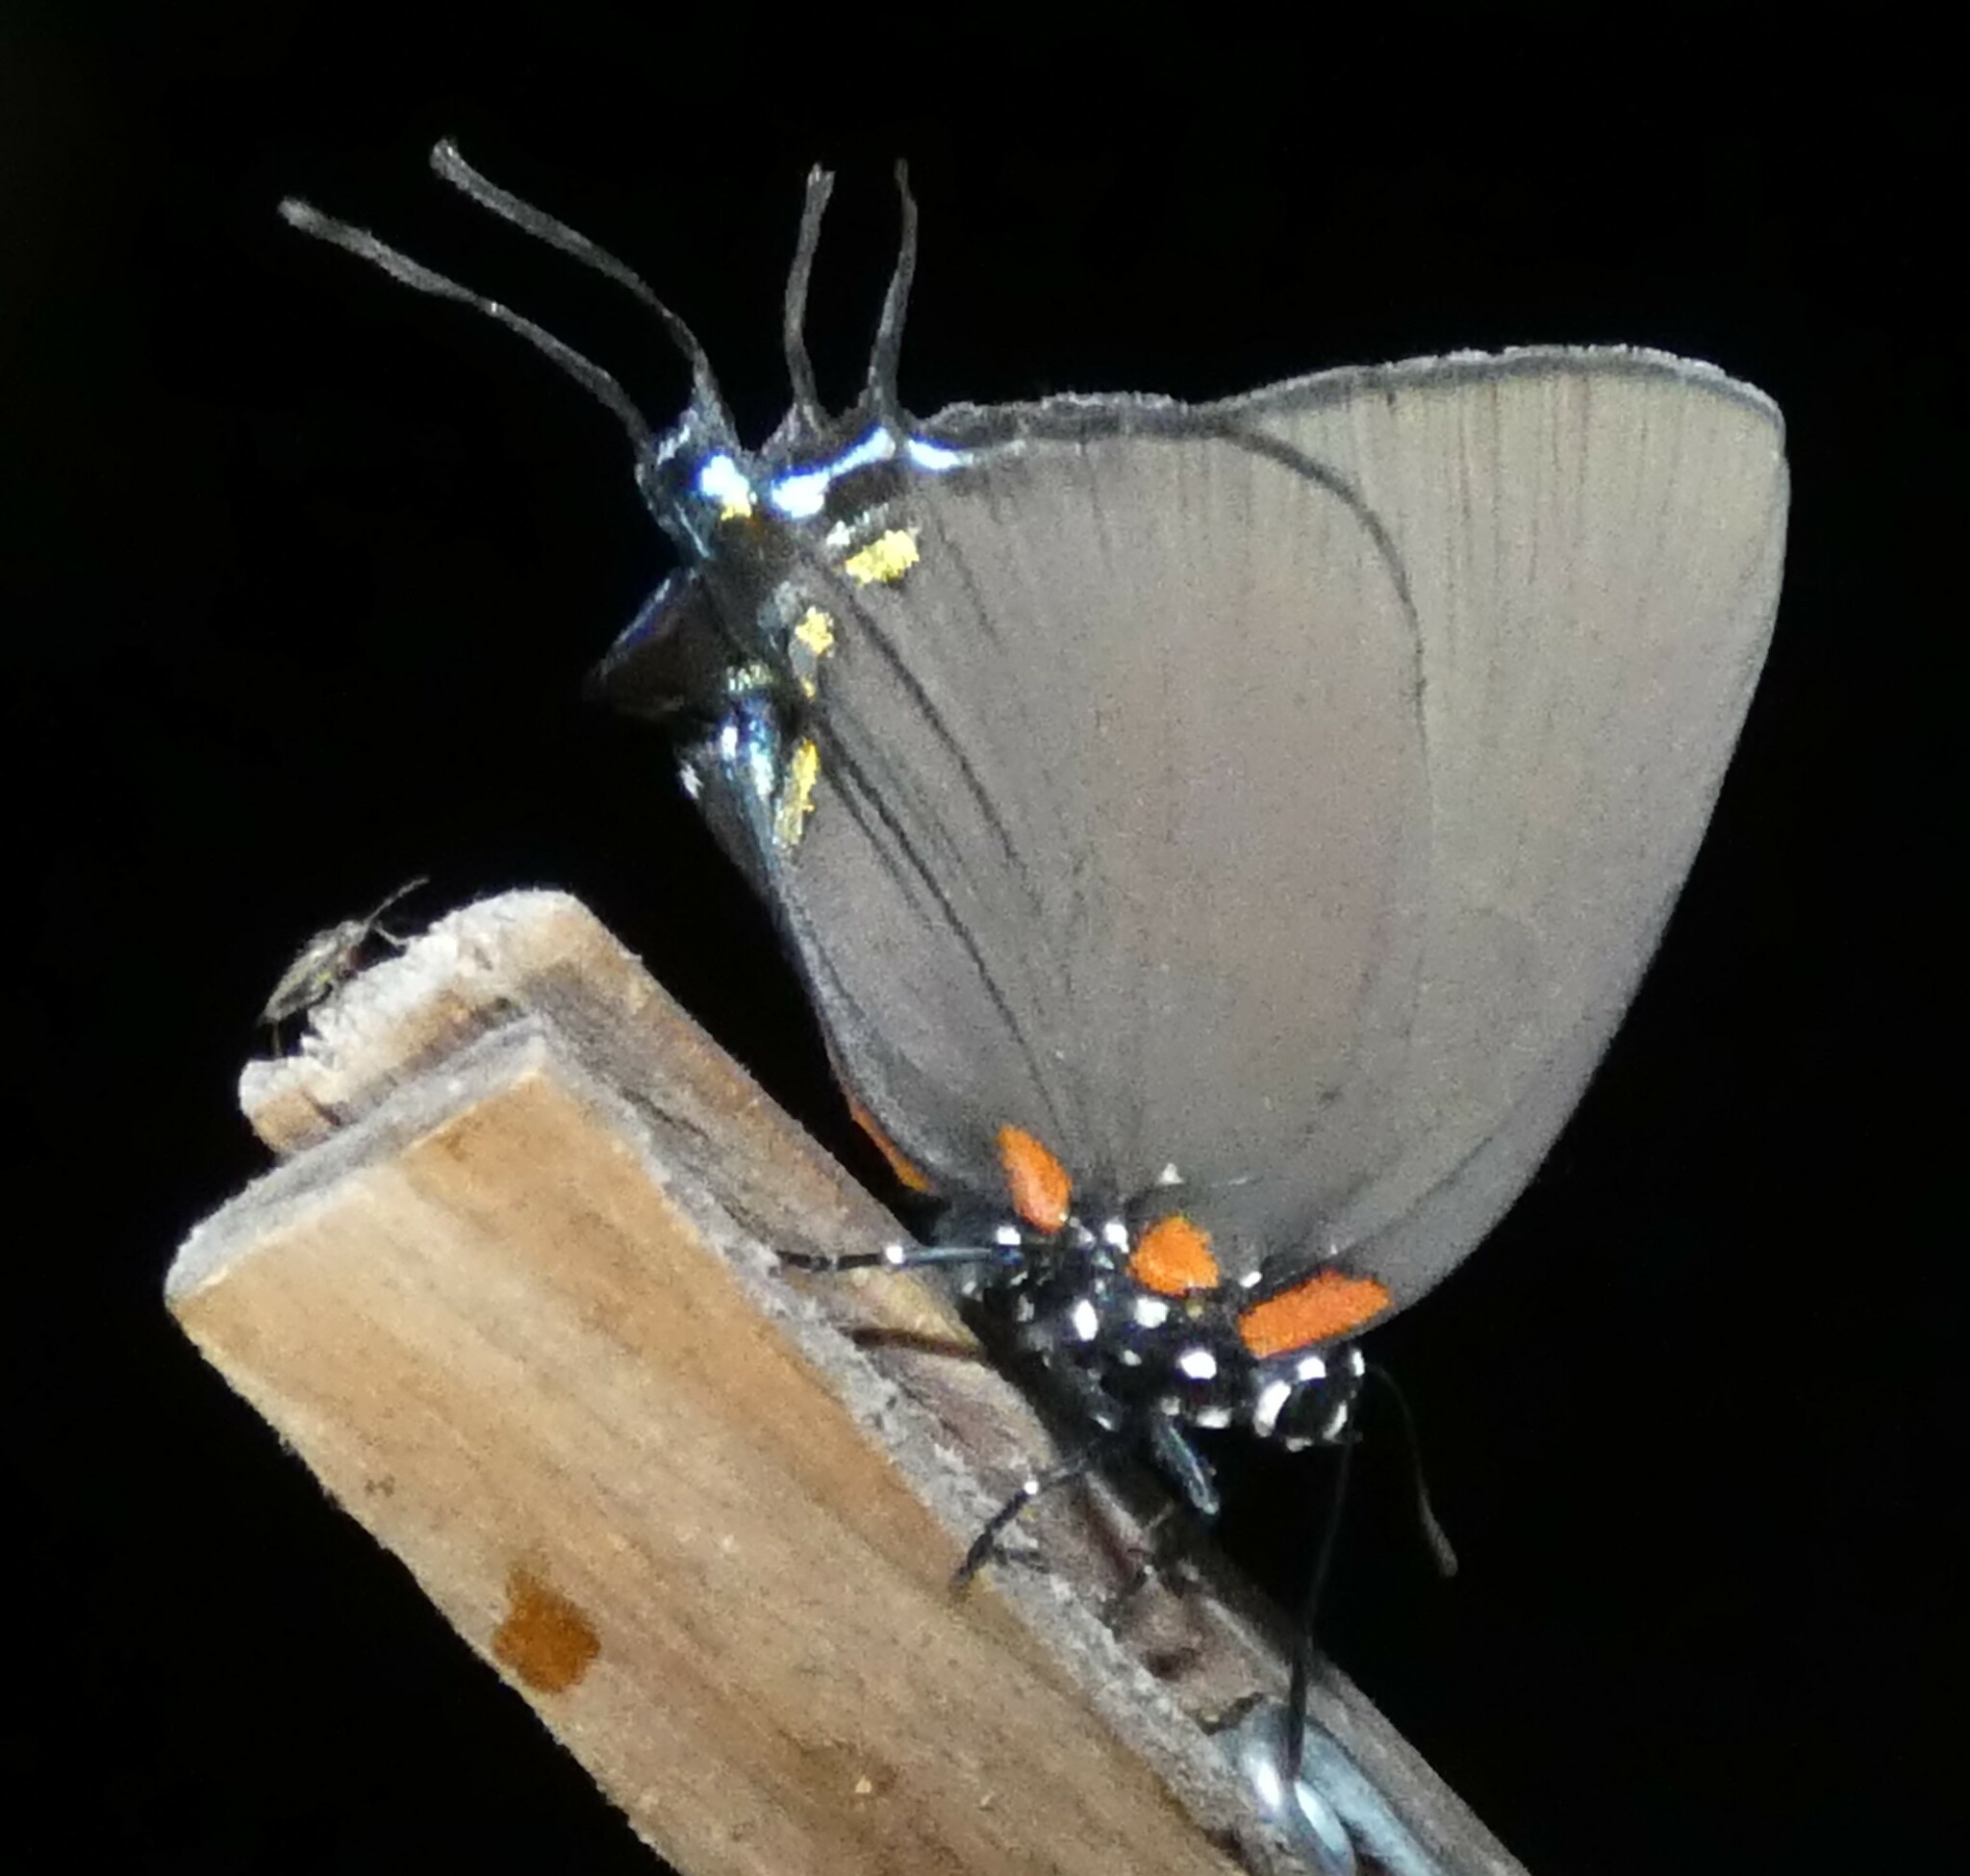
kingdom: Animalia
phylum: Arthropoda
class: Insecta
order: Lepidoptera
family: Lycaenidae
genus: Atlides
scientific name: Atlides halesus
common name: Great purple hairstreak
